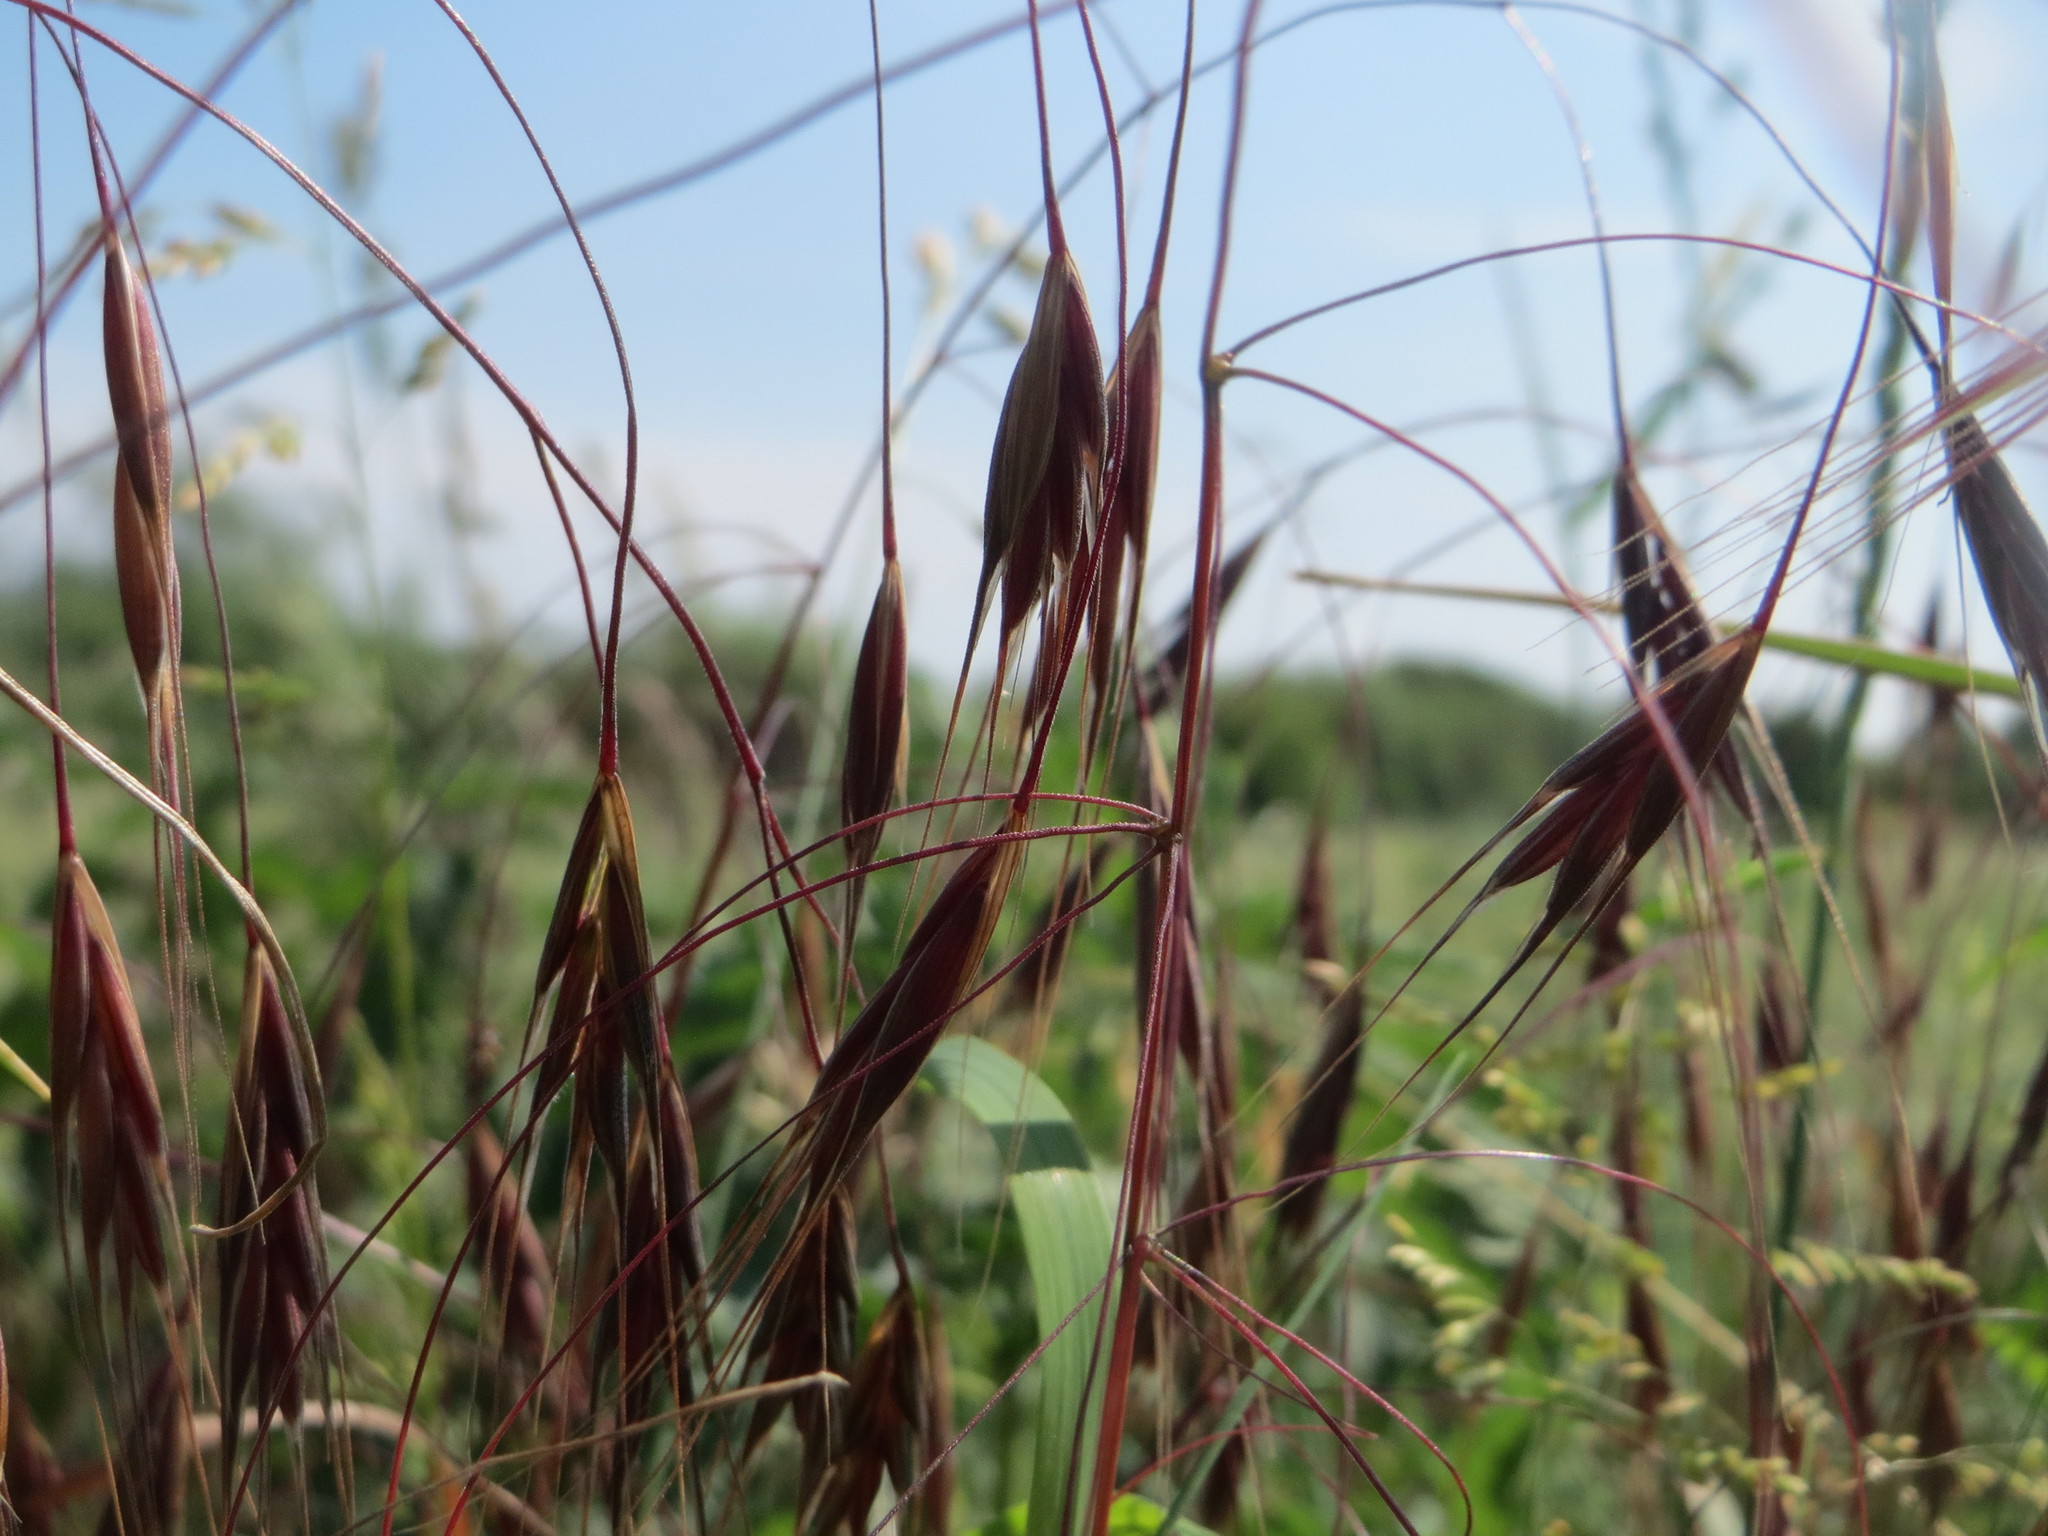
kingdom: Plantae
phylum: Tracheophyta
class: Liliopsida
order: Poales
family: Poaceae
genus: Bromus
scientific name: Bromus sterilis
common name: Poverty brome
